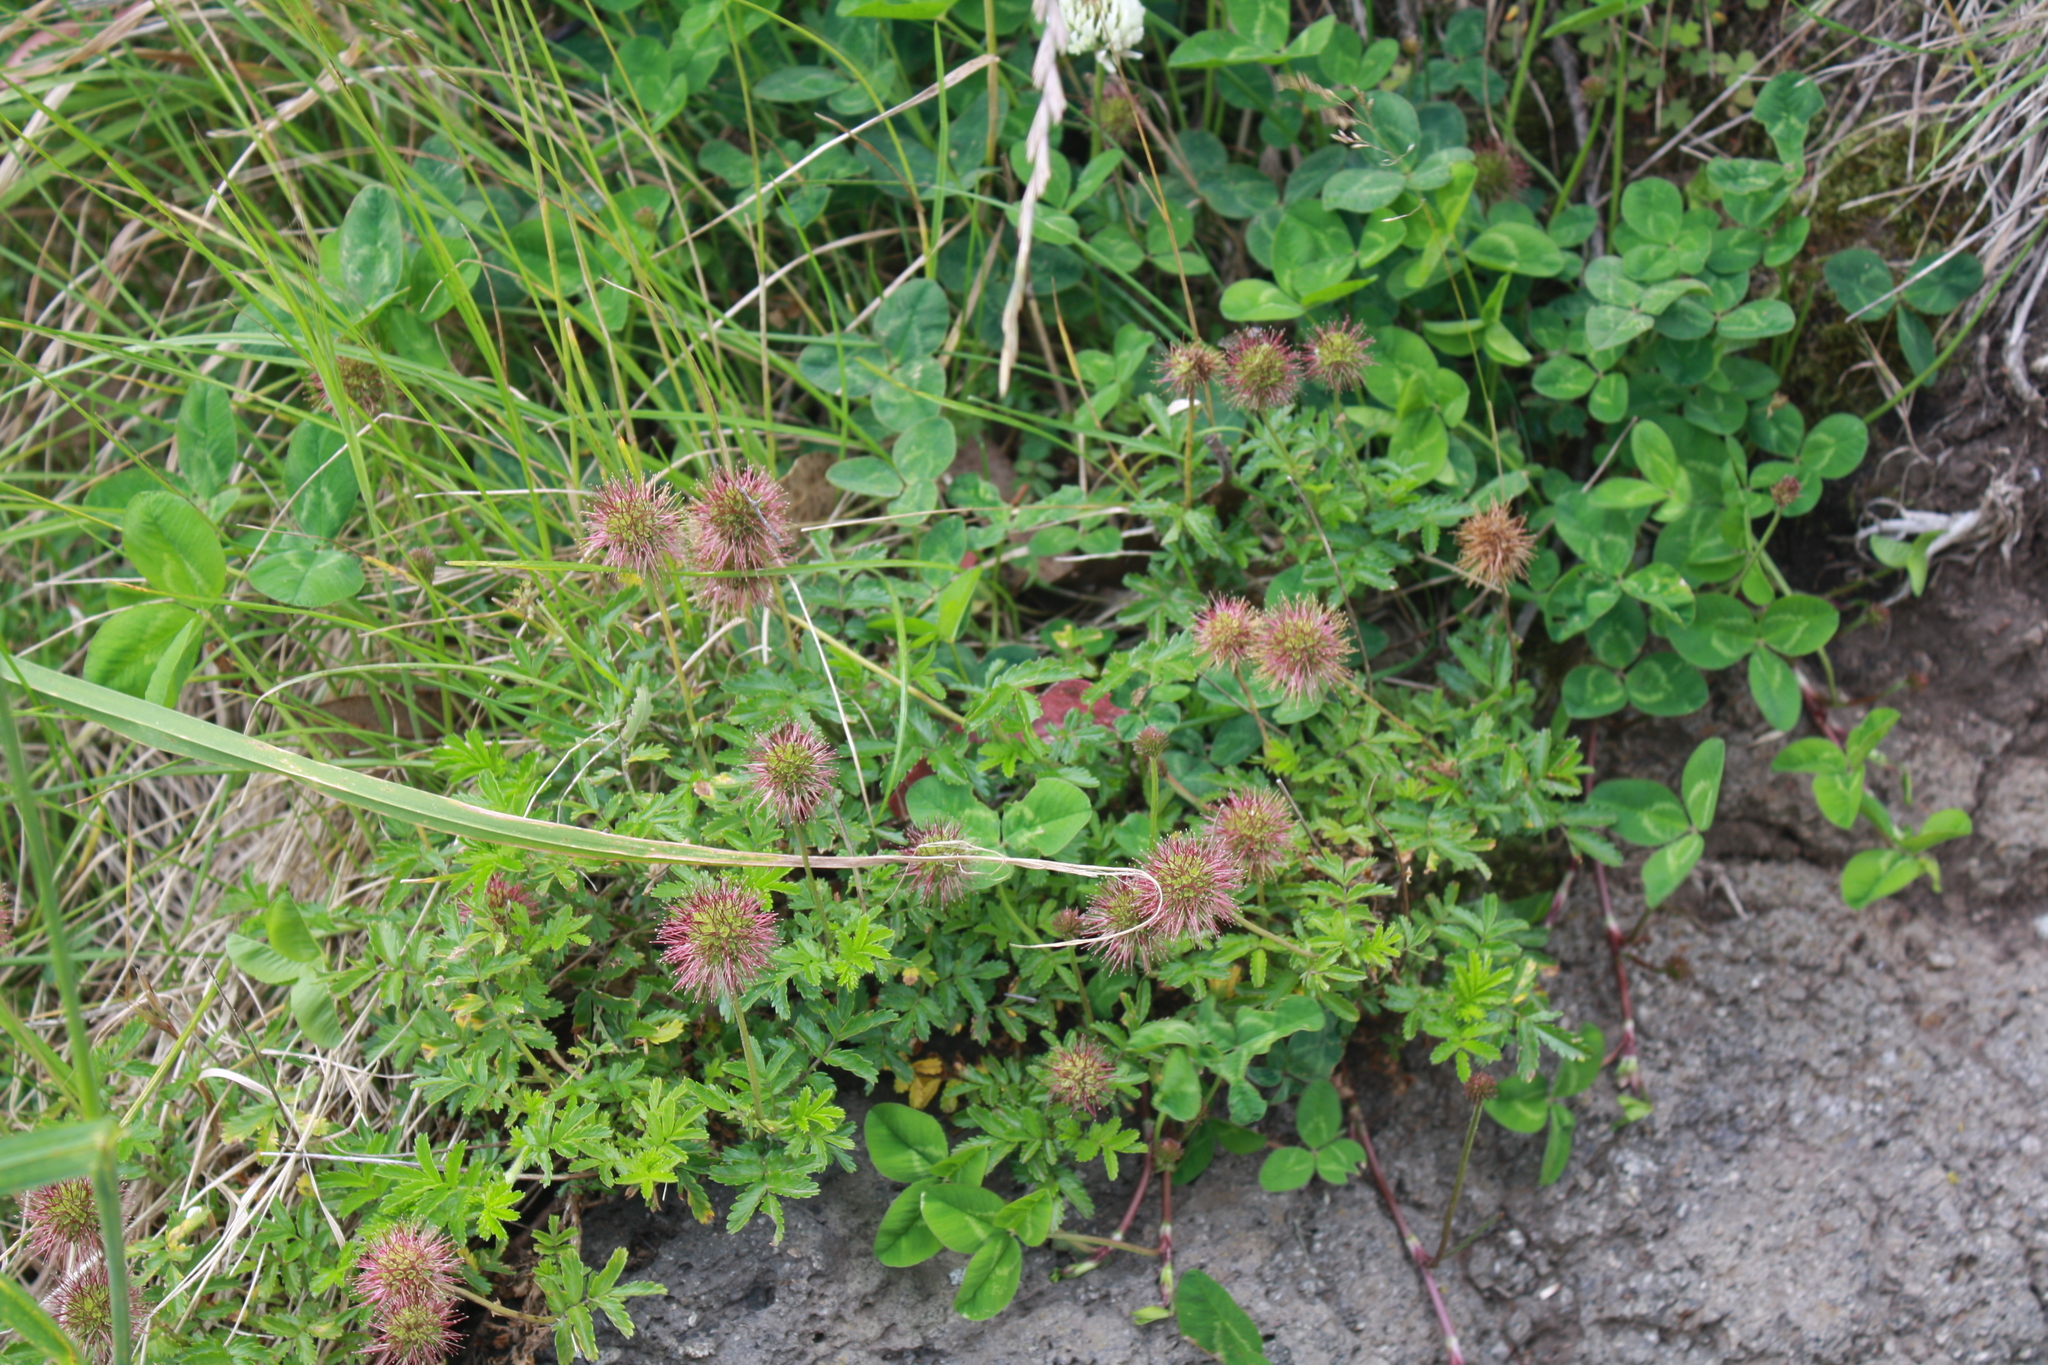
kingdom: Plantae
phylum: Tracheophyta
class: Magnoliopsida
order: Rosales
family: Rosaceae
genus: Acaena
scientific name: Acaena novae-zelandiae
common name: Pirri-pirri-bur
